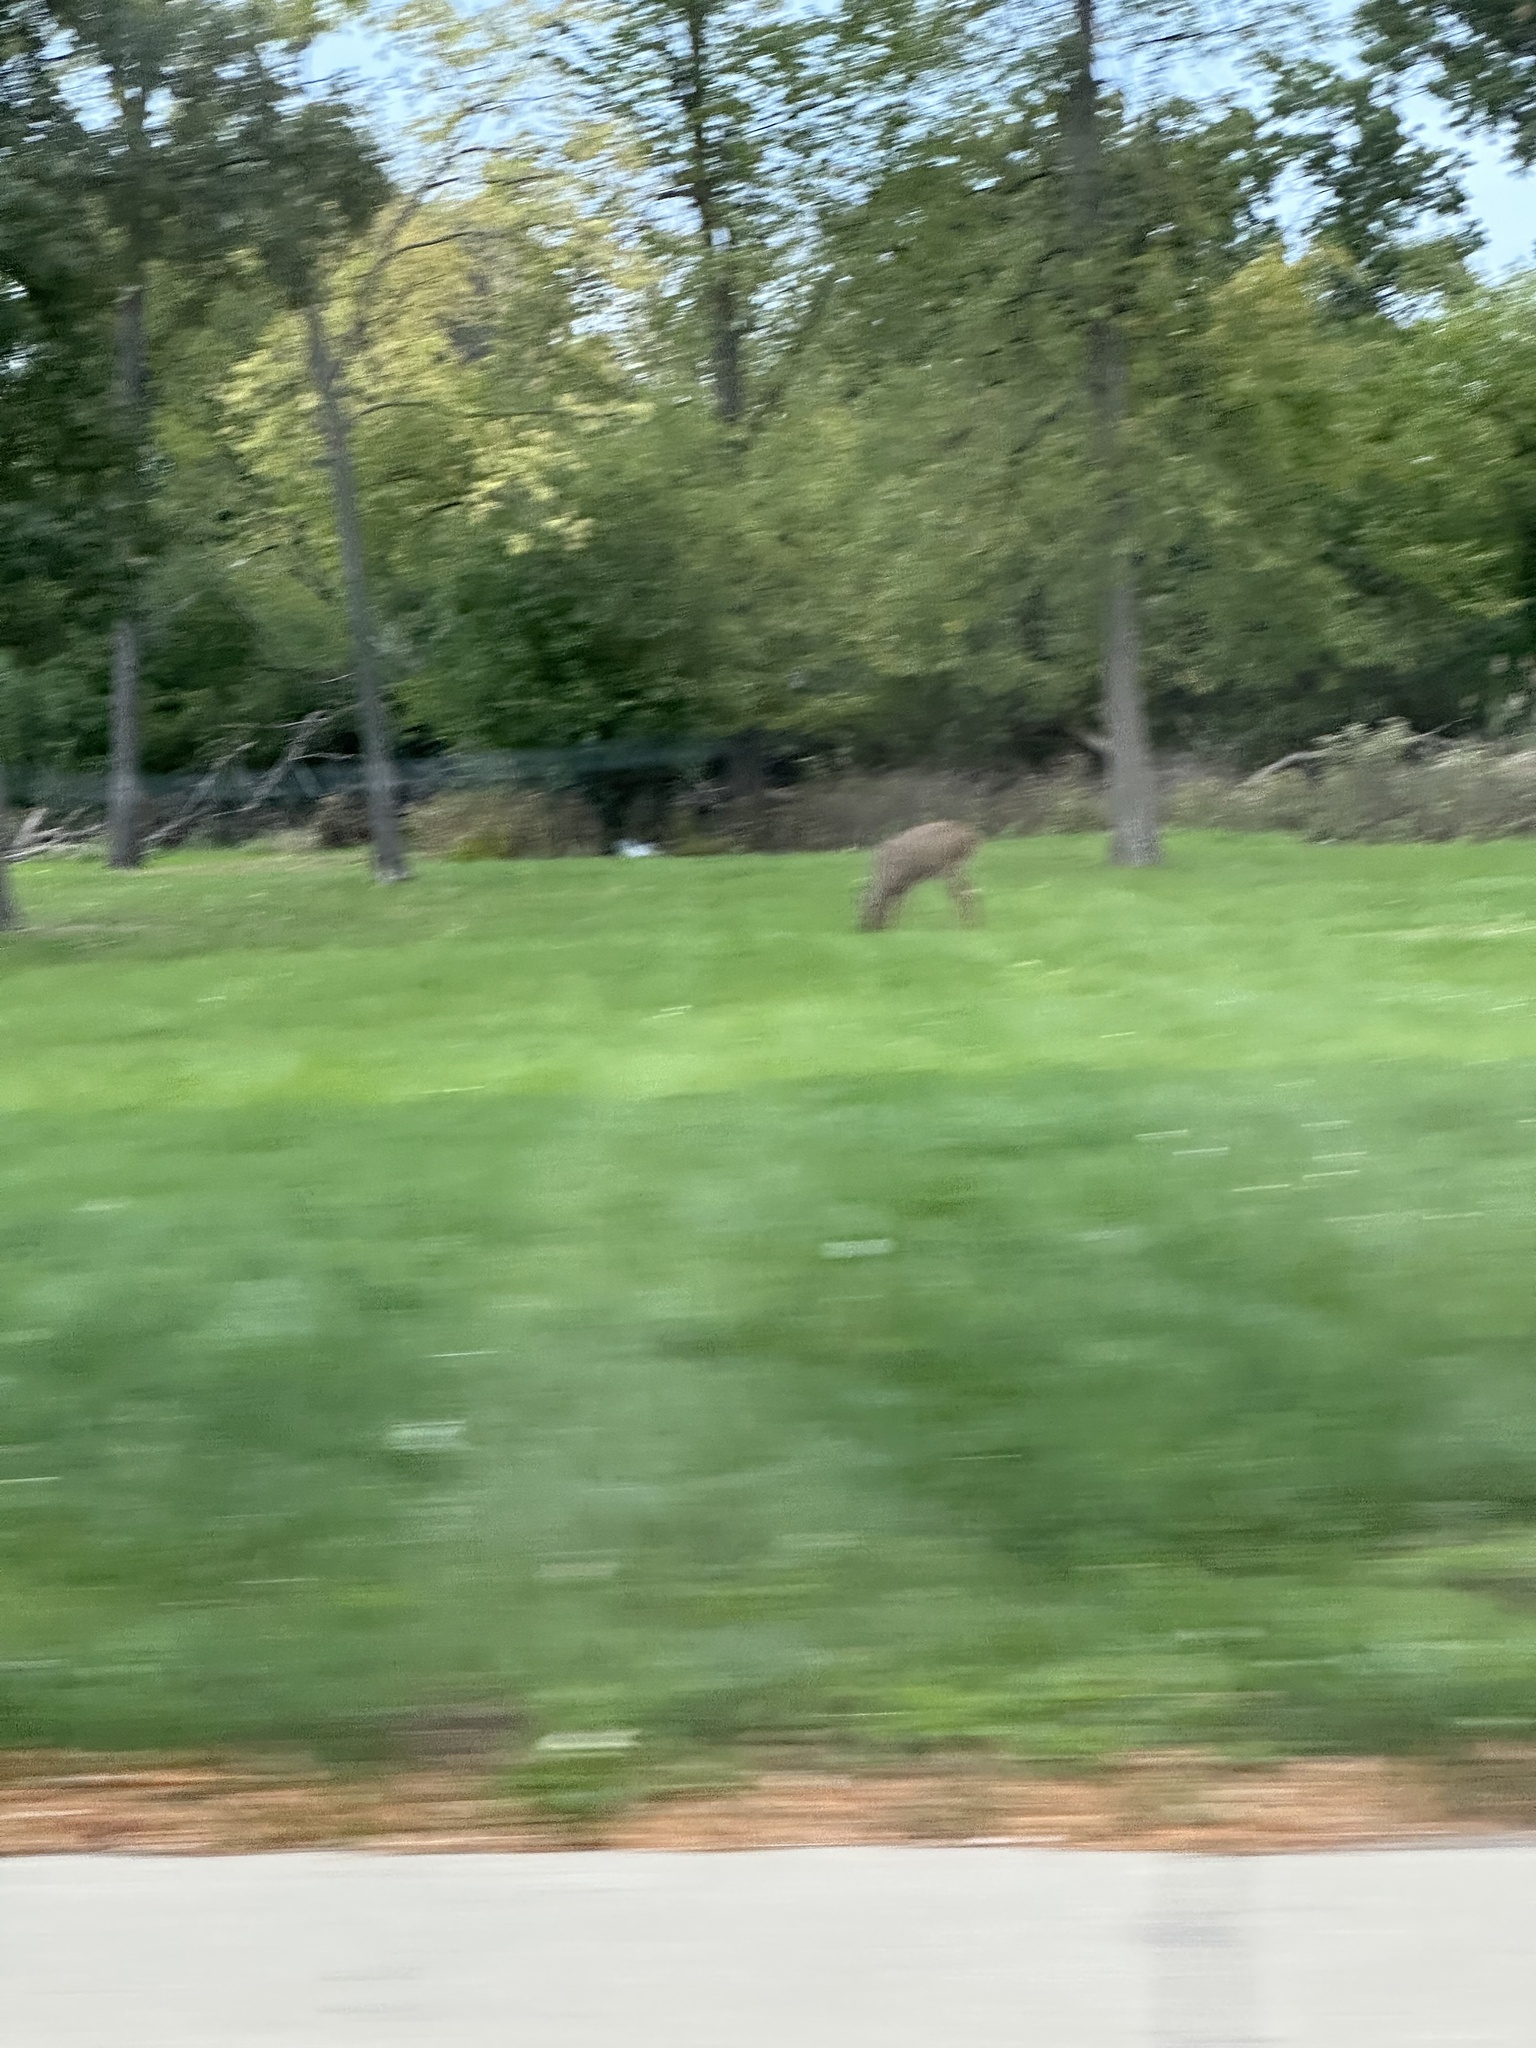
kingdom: Animalia
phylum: Chordata
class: Mammalia
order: Artiodactyla
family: Cervidae
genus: Odocoileus
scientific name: Odocoileus virginianus
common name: White-tailed deer
